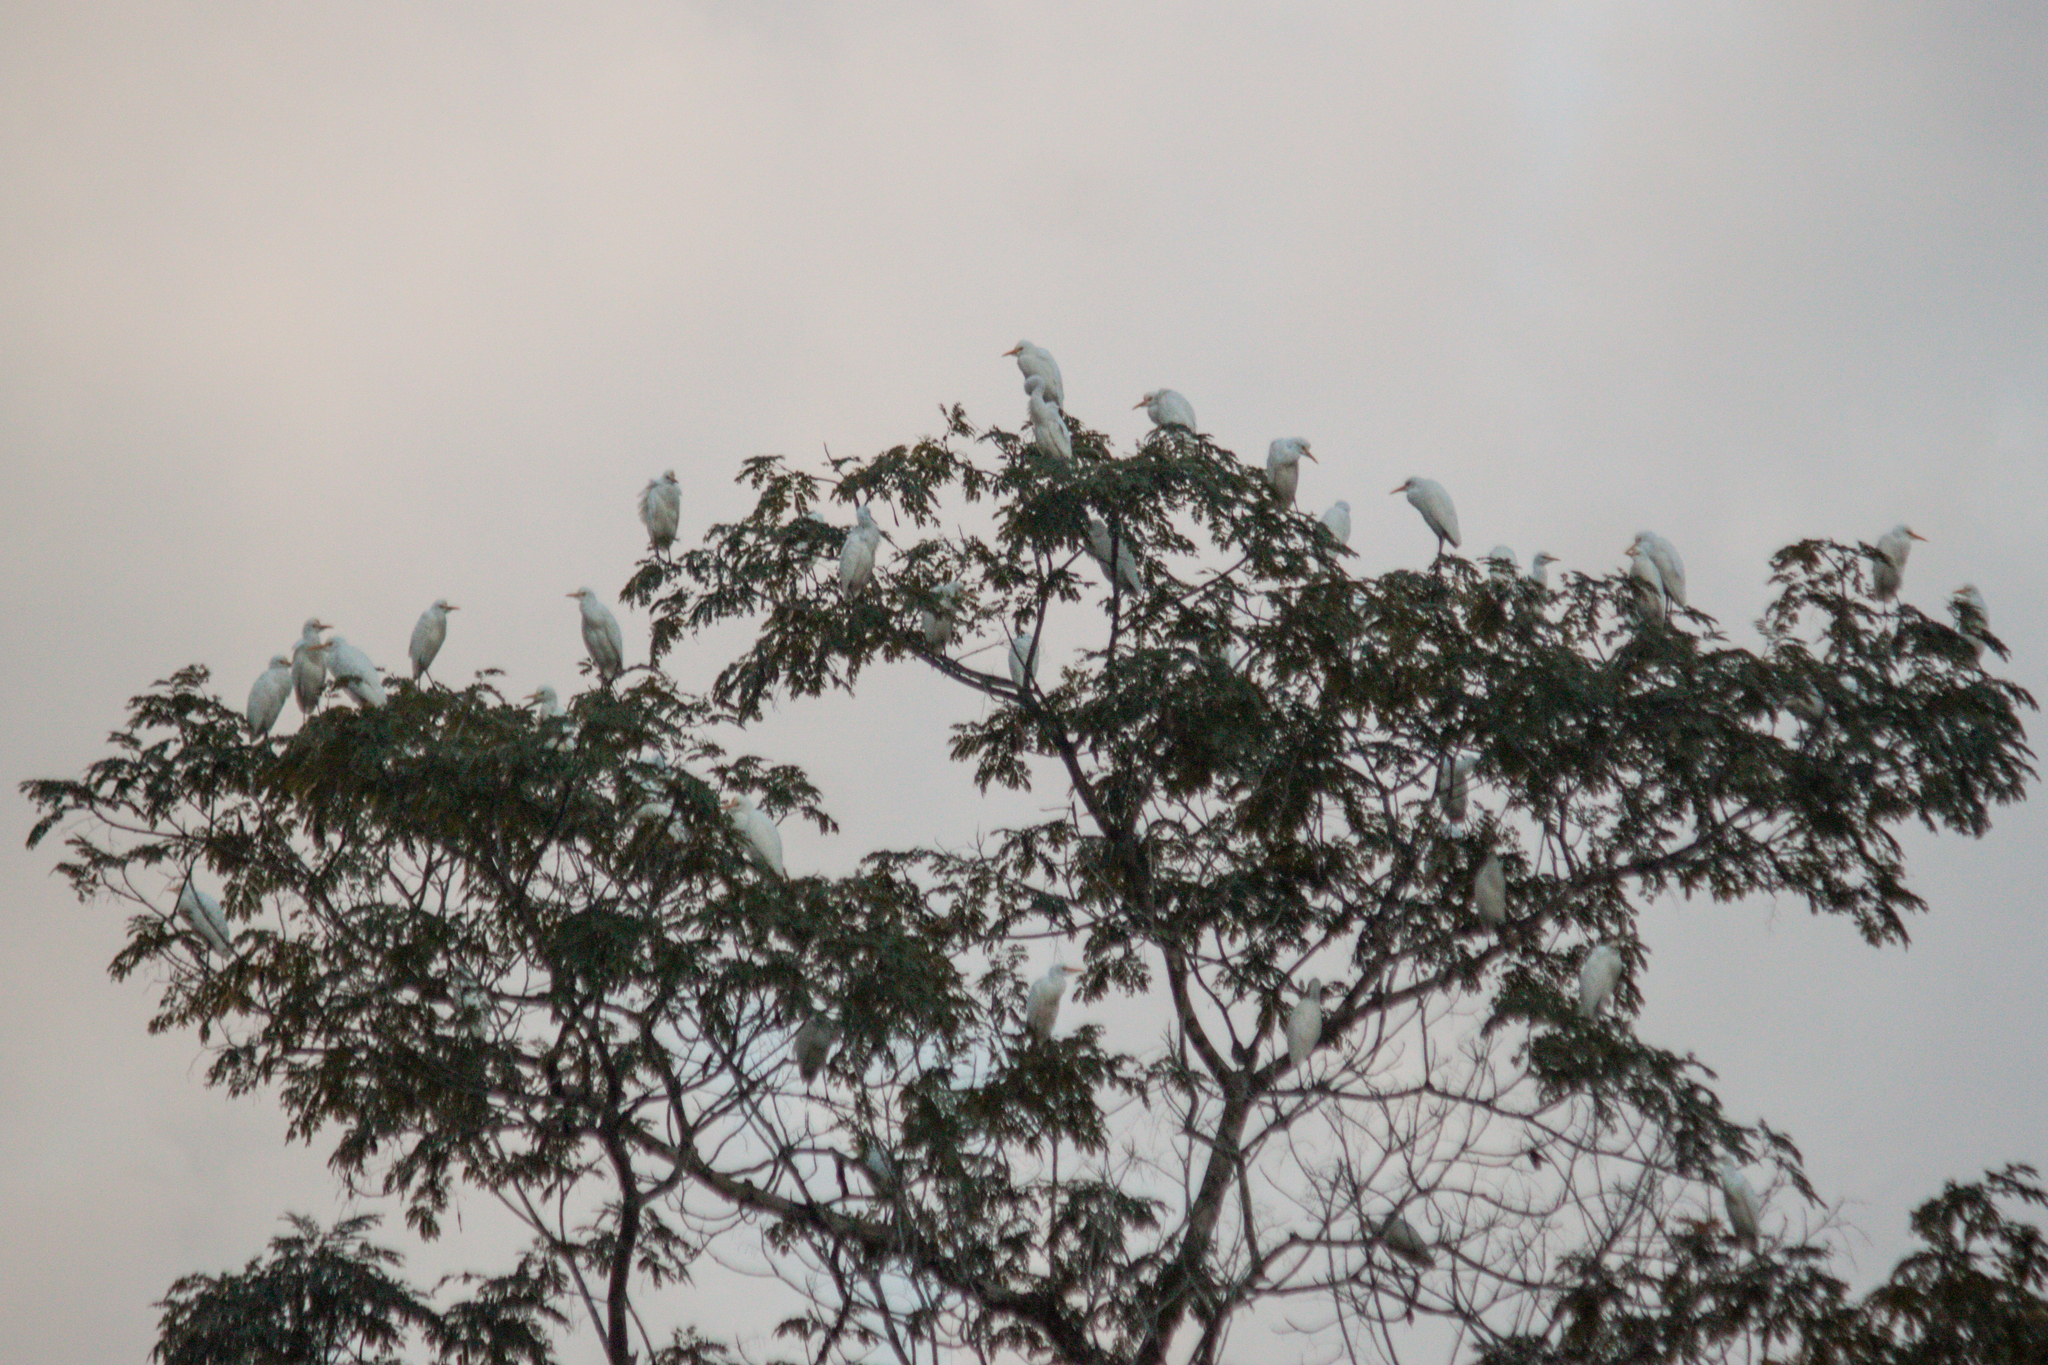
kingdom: Animalia
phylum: Chordata
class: Aves
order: Pelecaniformes
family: Ardeidae
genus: Bubulcus
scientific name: Bubulcus coromandus
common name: Eastern cattle egret
